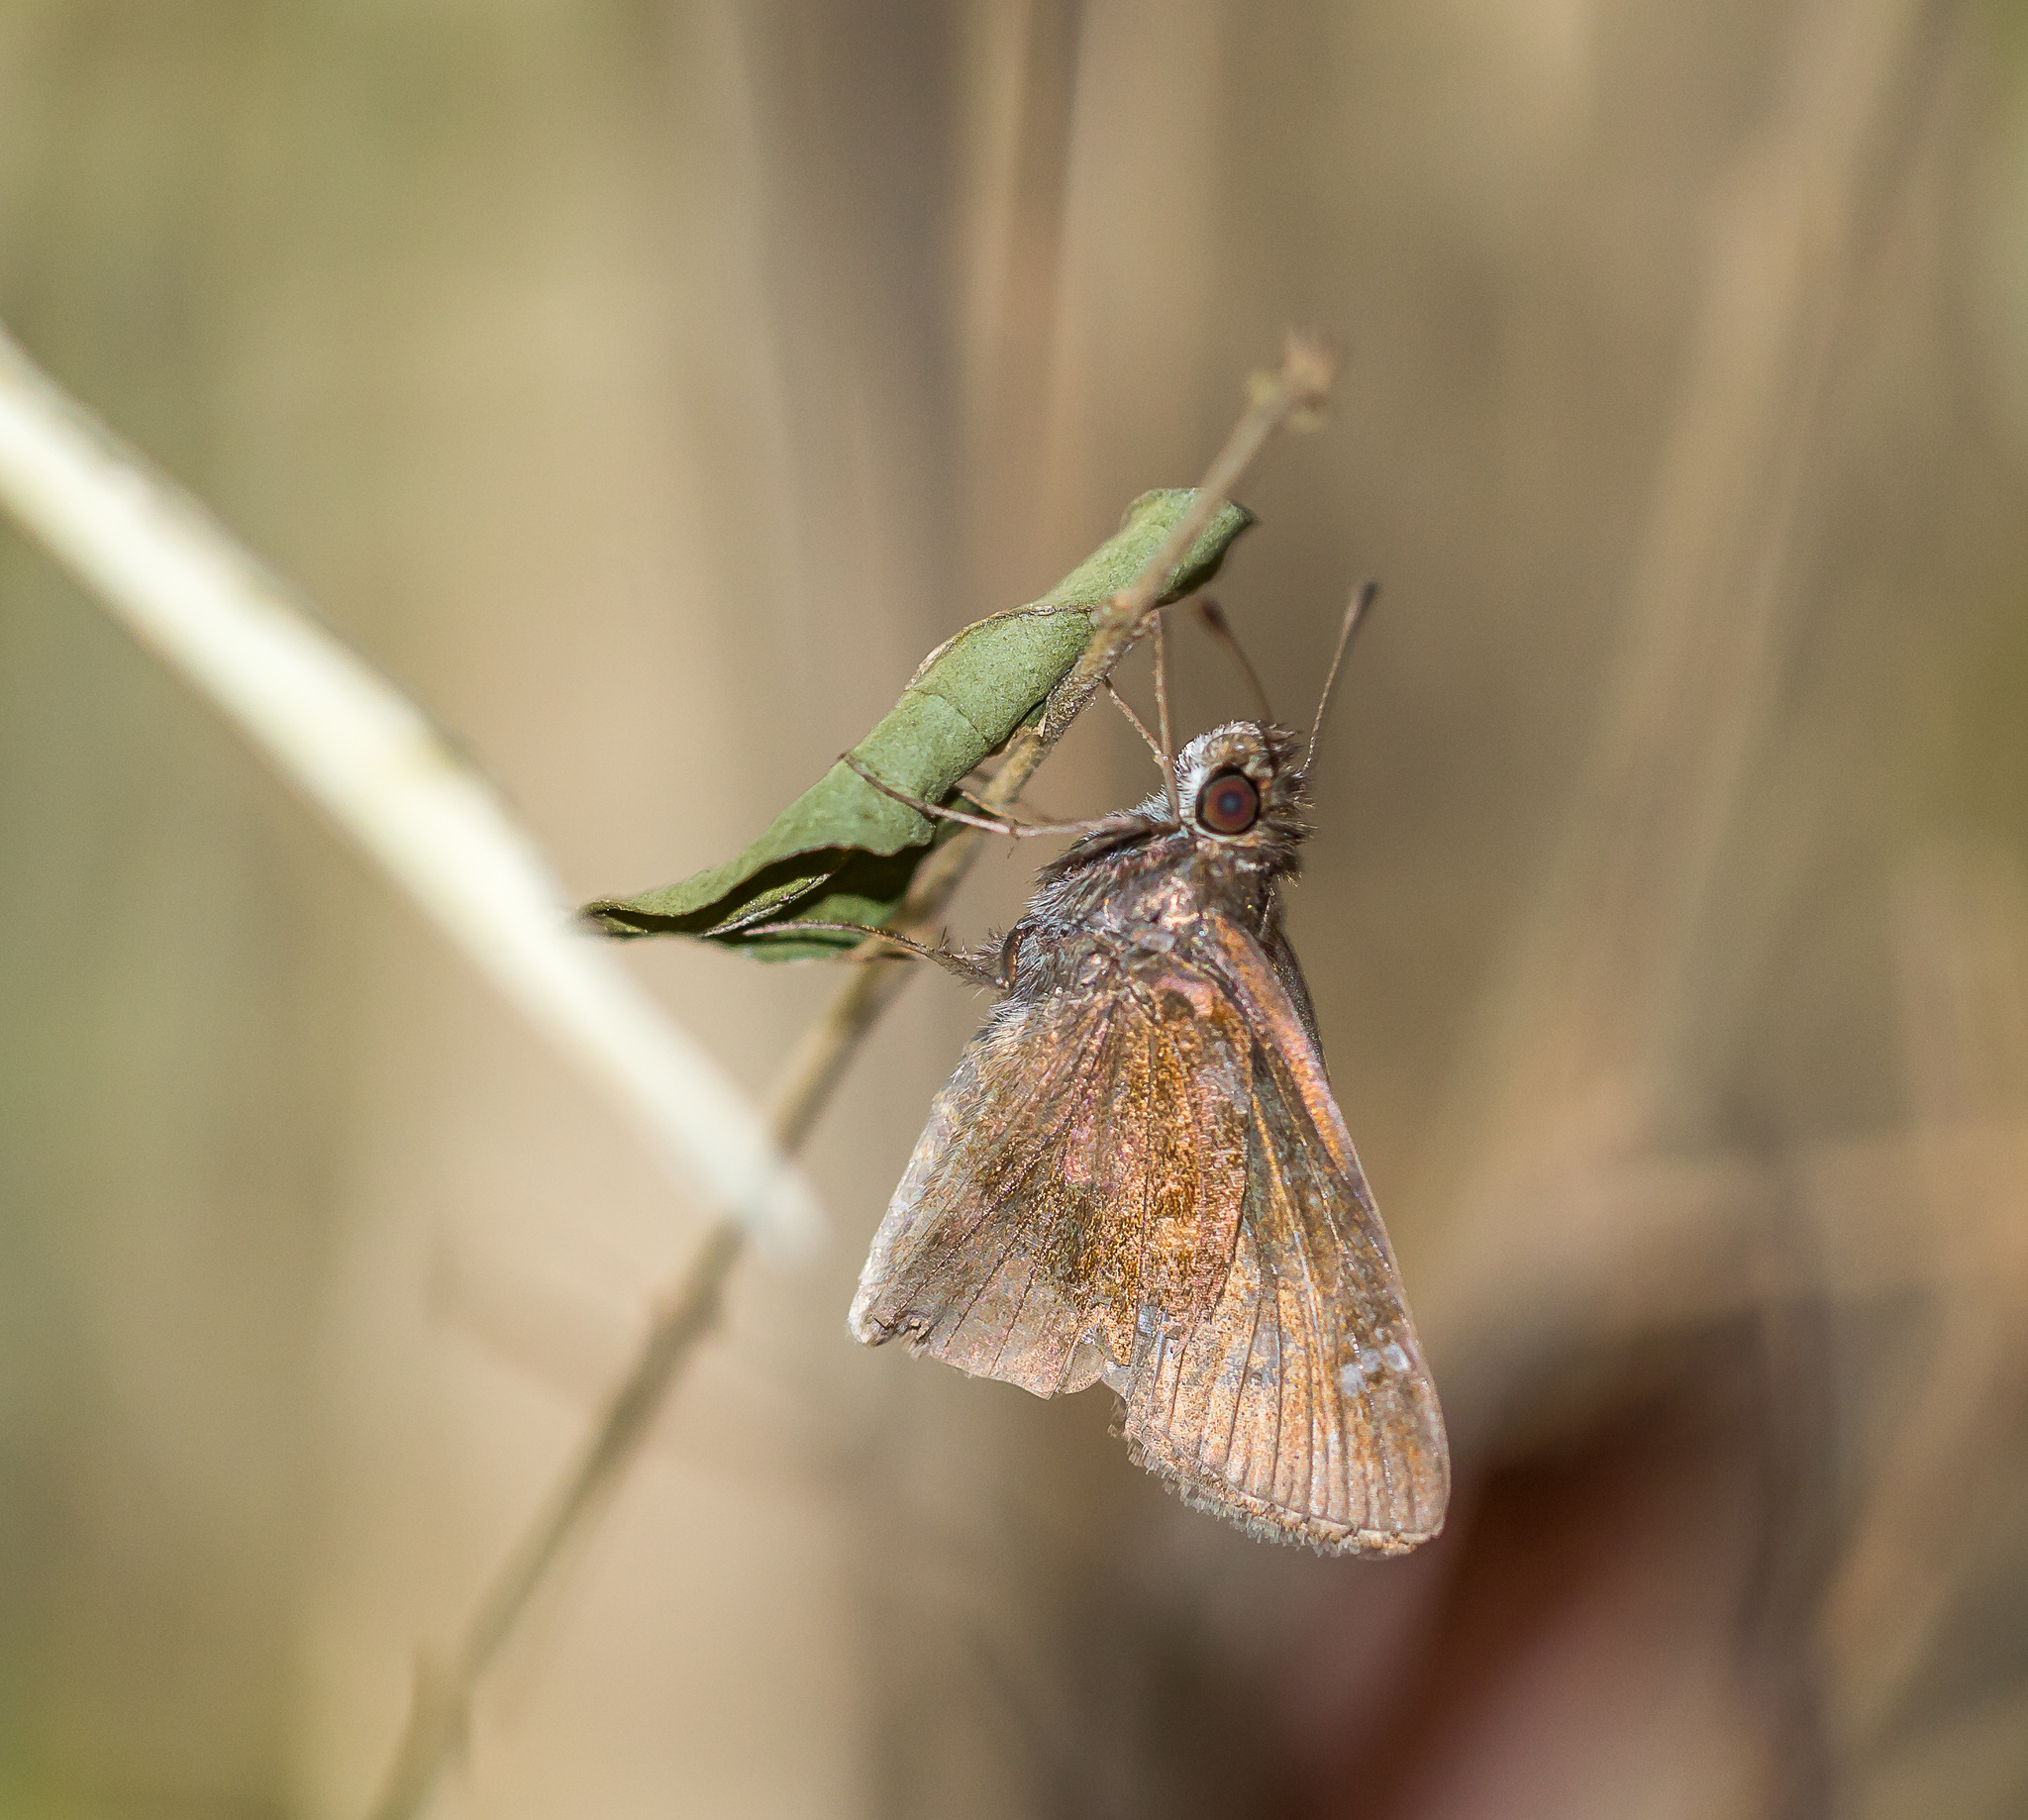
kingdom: Animalia
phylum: Arthropoda
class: Insecta
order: Lepidoptera
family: Hesperiidae
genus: Lerema
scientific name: Lerema accius
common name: Clouded skipper
